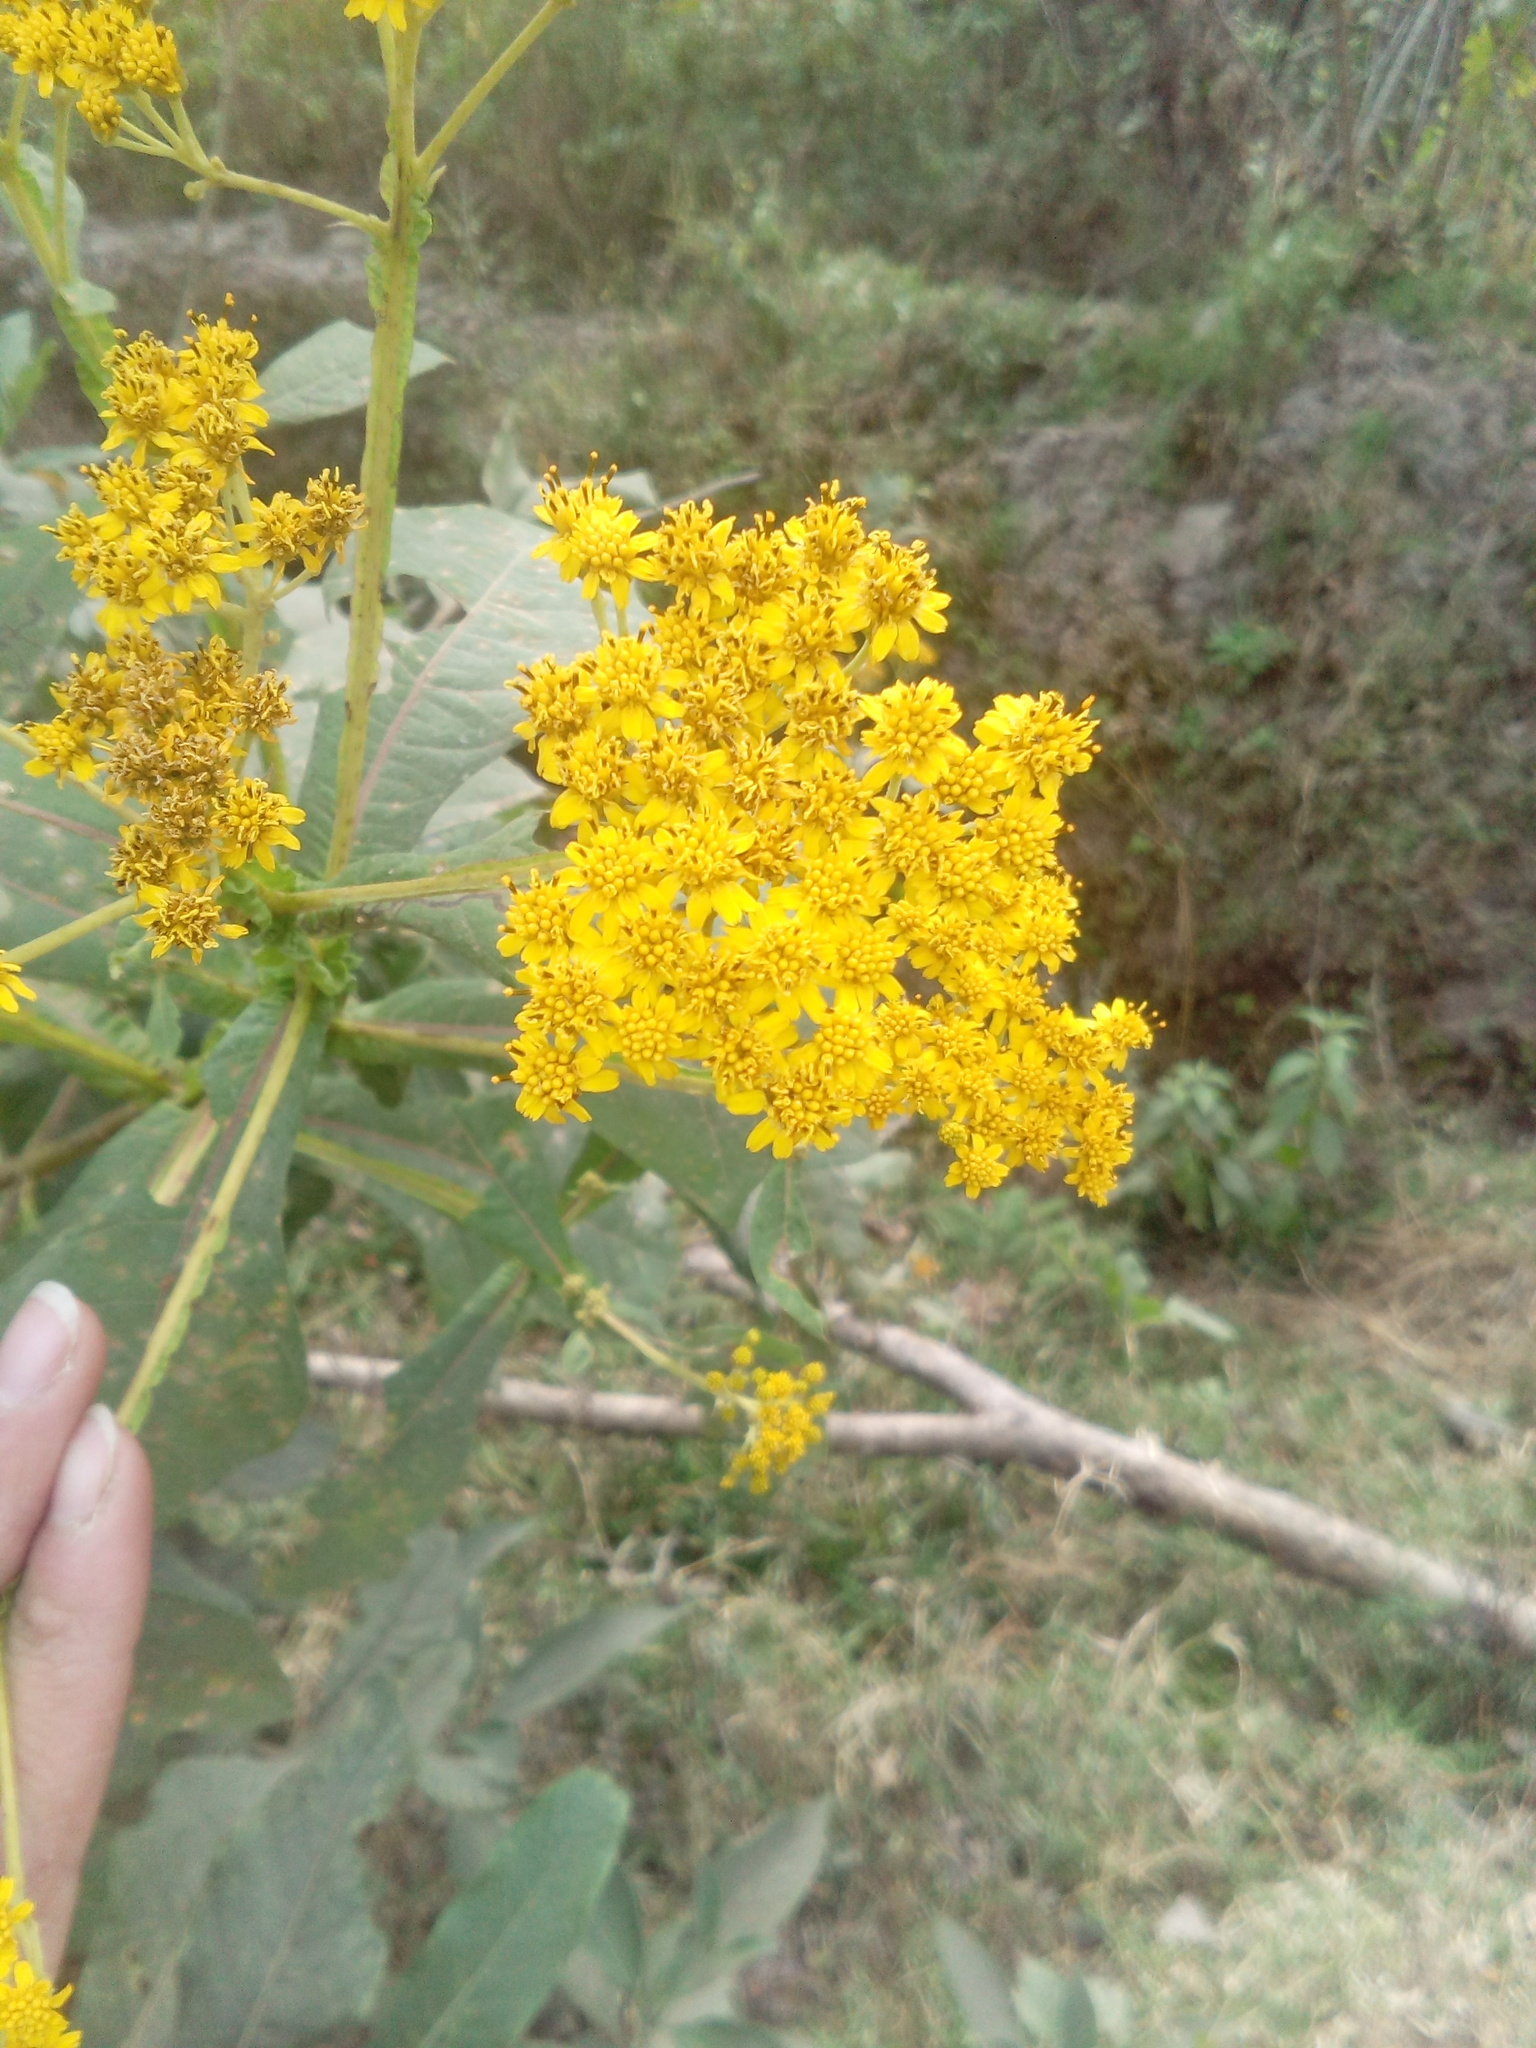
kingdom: Plantae
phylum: Tracheophyta
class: Magnoliopsida
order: Asterales
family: Asteraceae
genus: Verbesina
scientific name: Verbesina fastigiata
